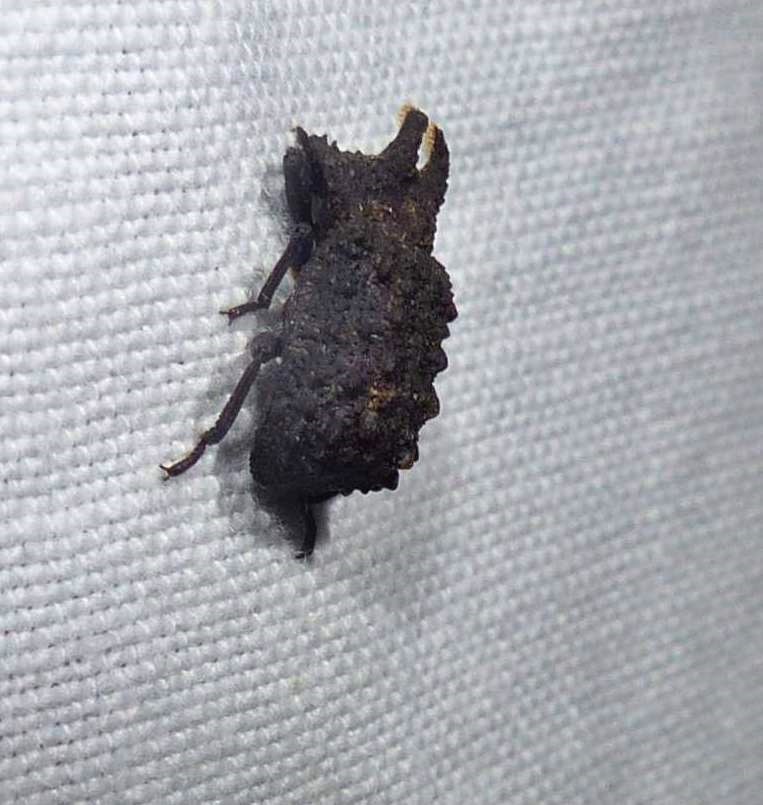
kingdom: Animalia
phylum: Arthropoda
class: Insecta
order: Coleoptera
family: Tenebrionidae
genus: Gnatocerus
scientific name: Gnatocerus cornutus
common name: Broad-horned flour beetle
